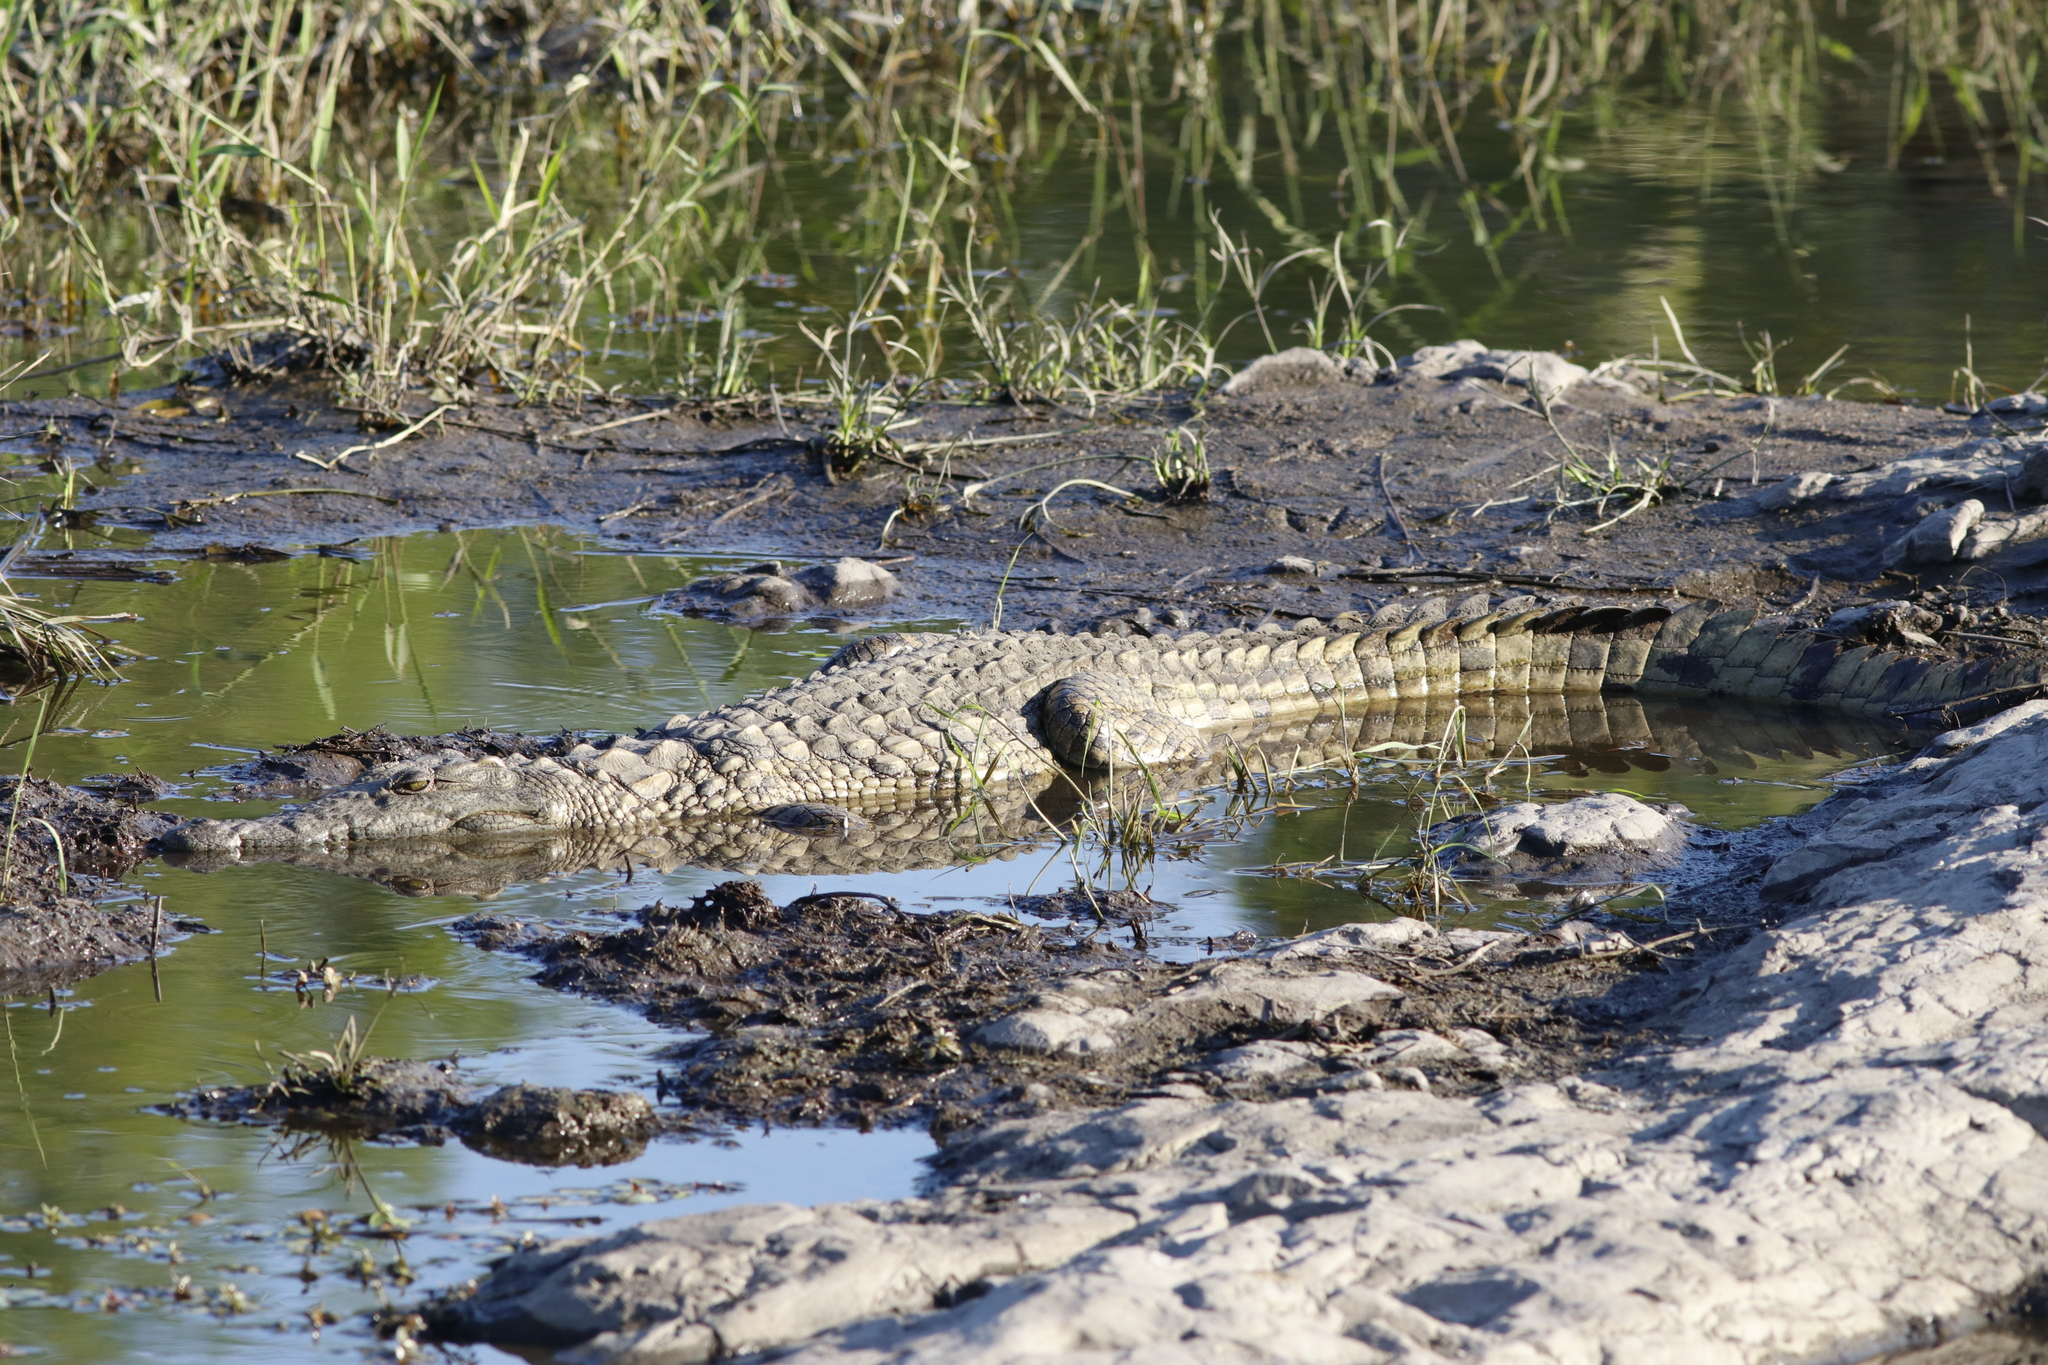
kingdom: Animalia
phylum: Chordata
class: Crocodylia
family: Crocodylidae
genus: Crocodylus
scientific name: Crocodylus niloticus
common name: Nile crocodile
